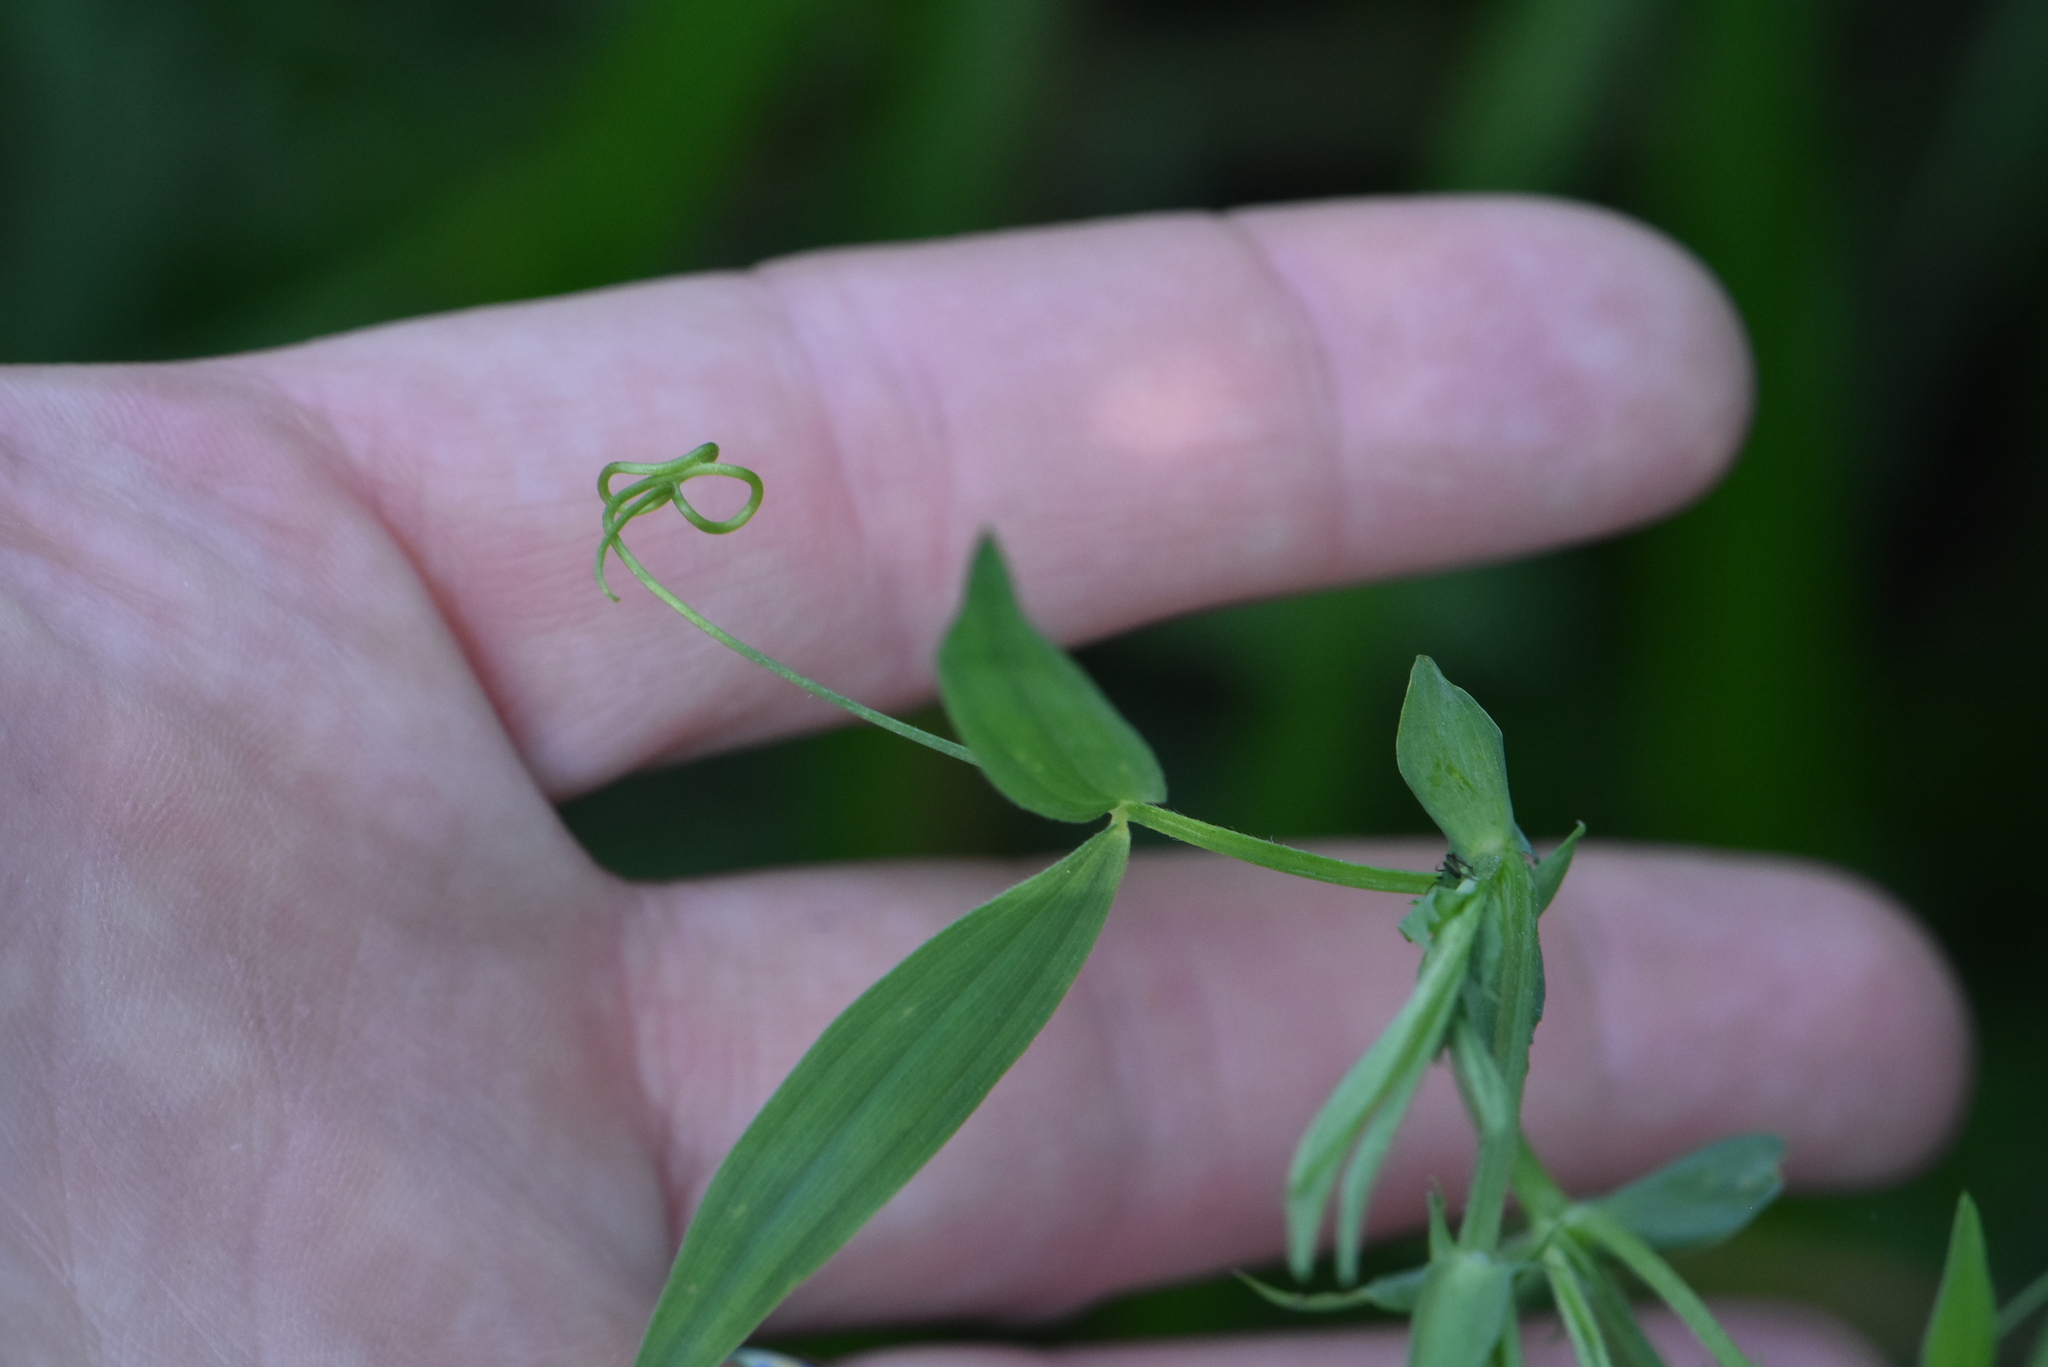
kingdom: Plantae
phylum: Tracheophyta
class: Magnoliopsida
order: Fabales
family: Fabaceae
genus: Lathyrus
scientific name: Lathyrus pratensis
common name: Meadow vetchling
